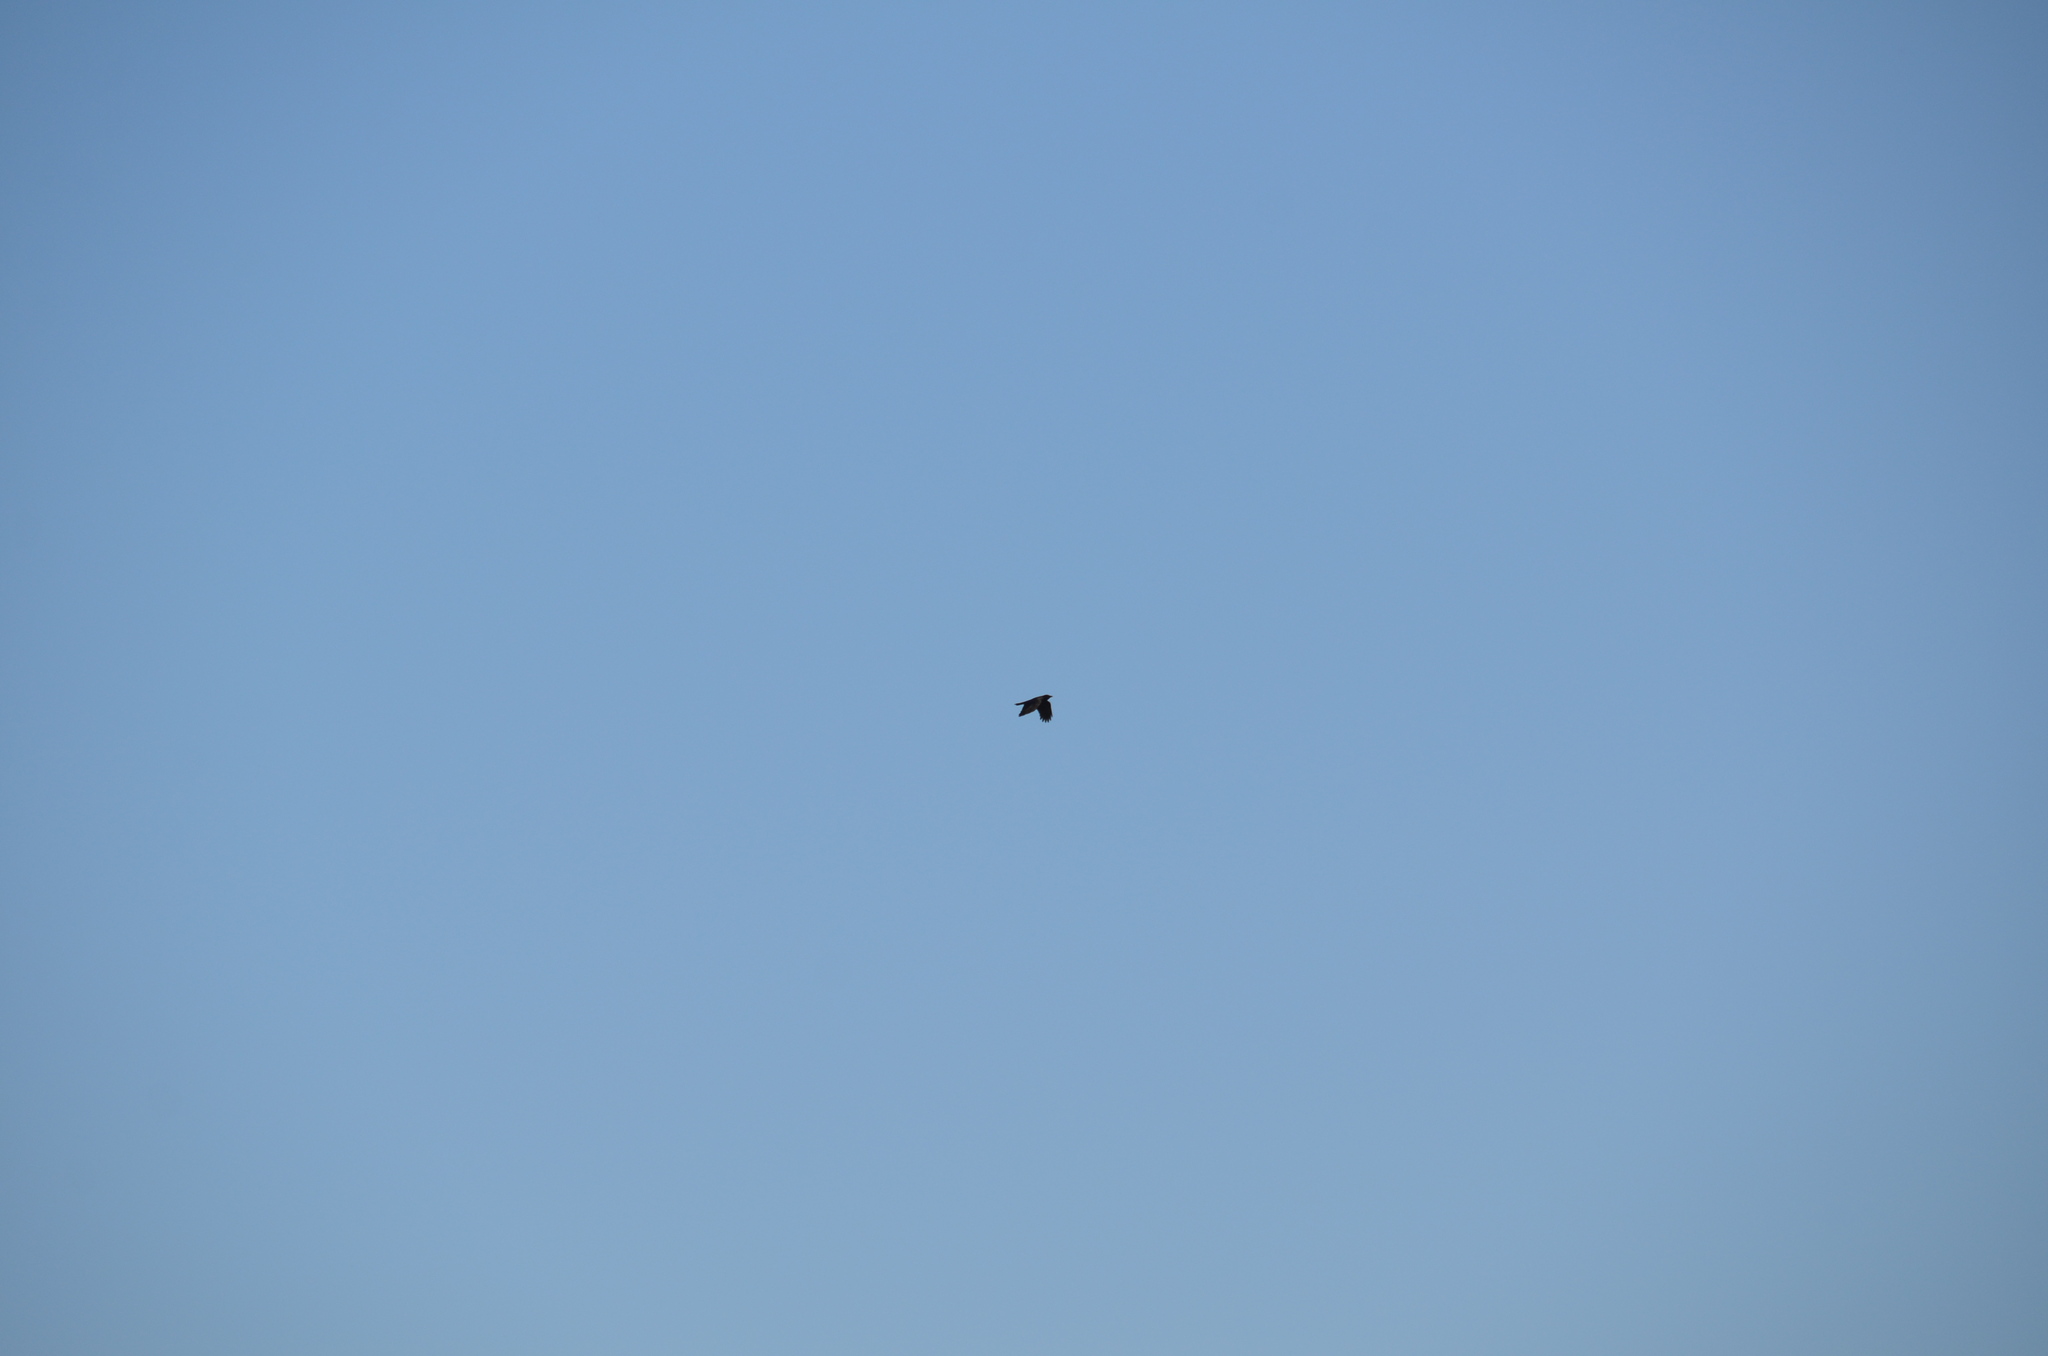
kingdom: Animalia
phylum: Chordata
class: Aves
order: Passeriformes
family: Icteridae
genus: Euphagus
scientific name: Euphagus cyanocephalus
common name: Brewer's blackbird
